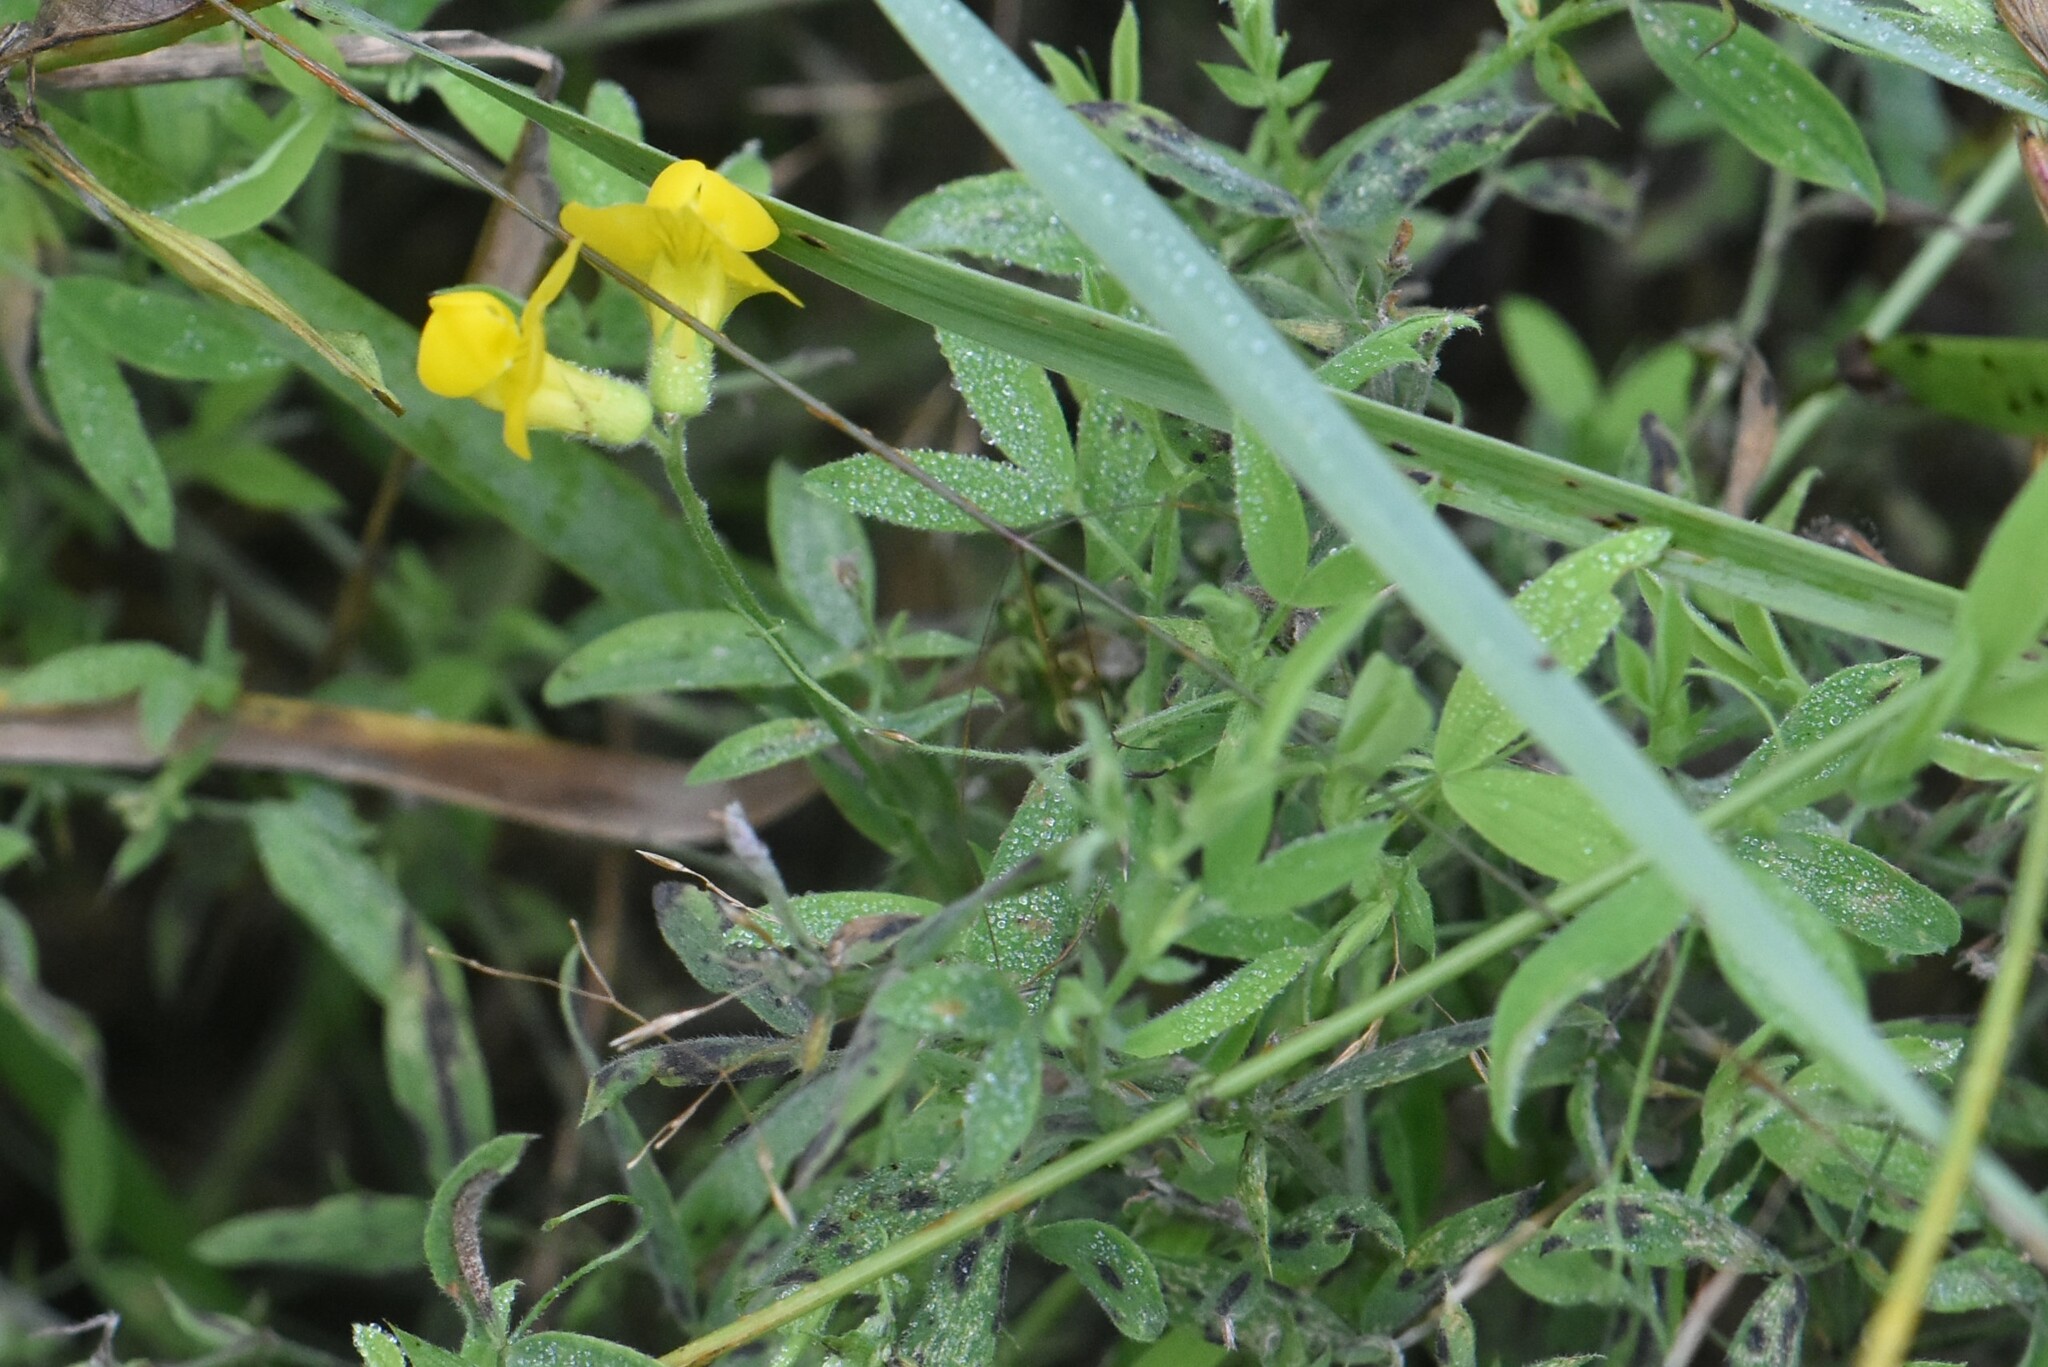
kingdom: Plantae
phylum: Tracheophyta
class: Magnoliopsida
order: Fabales
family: Fabaceae
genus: Lathyrus
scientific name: Lathyrus pratensis
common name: Meadow vetchling
